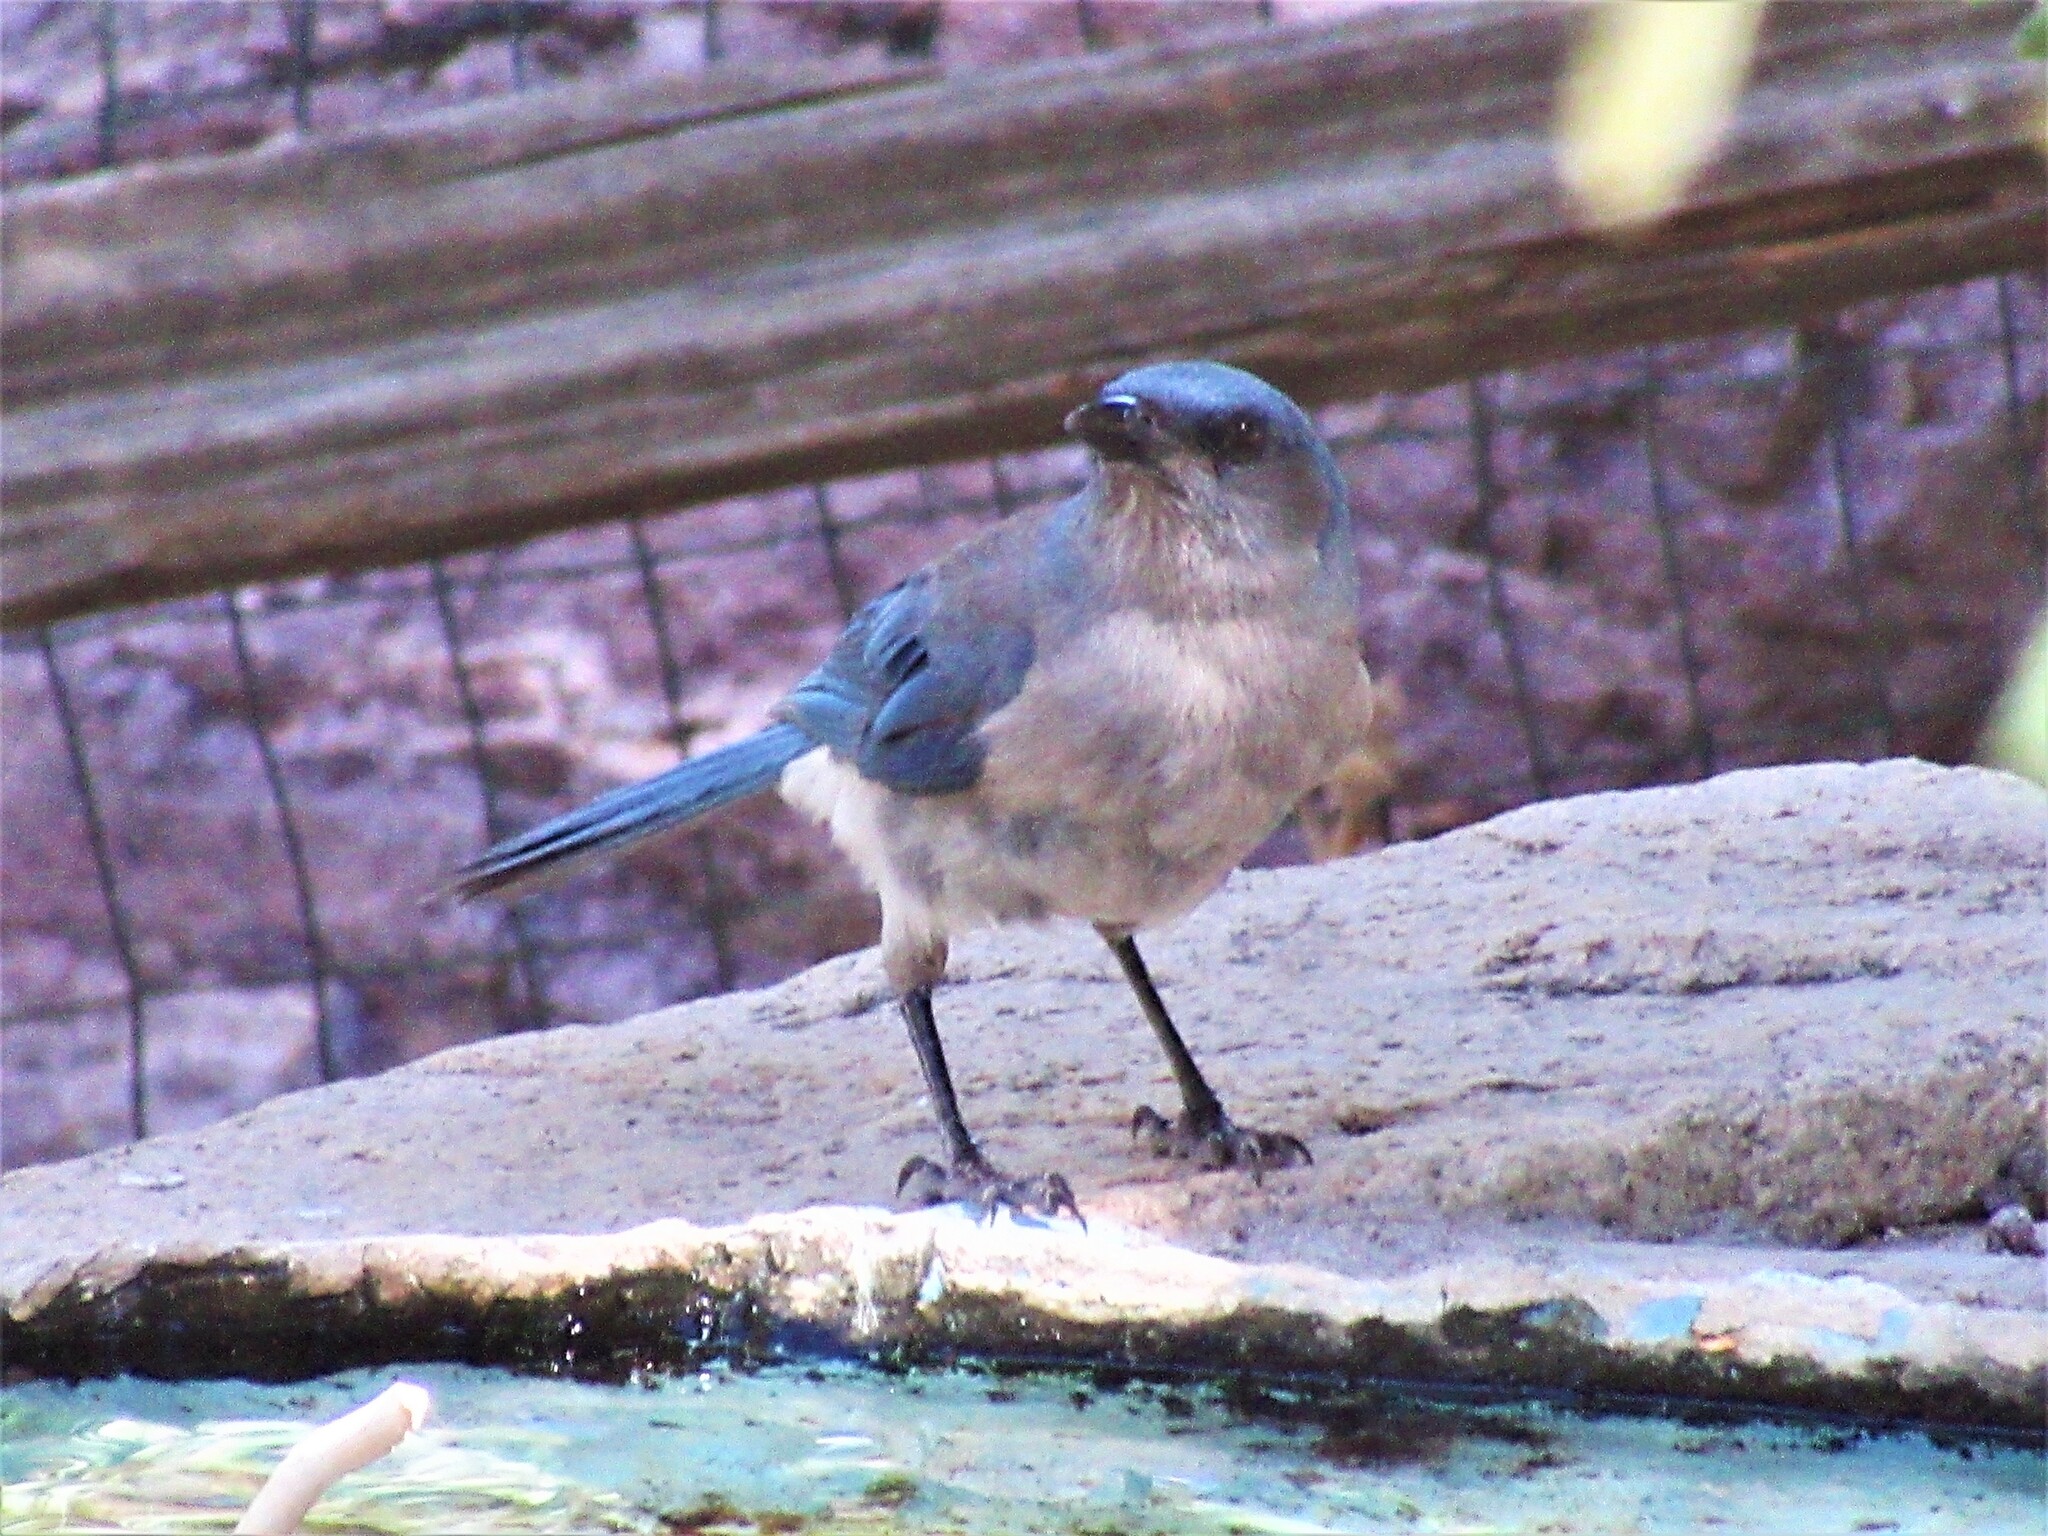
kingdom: Animalia
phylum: Chordata
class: Aves
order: Passeriformes
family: Corvidae
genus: Aphelocoma
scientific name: Aphelocoma wollweberi
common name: Mexican jay
